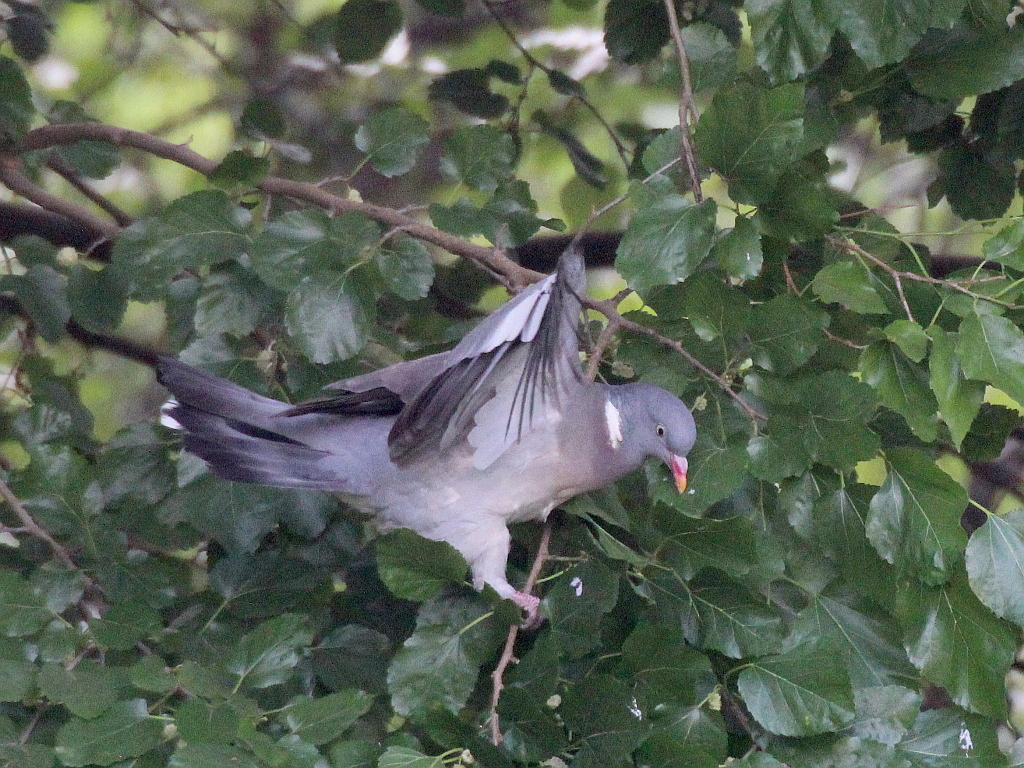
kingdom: Animalia
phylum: Chordata
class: Aves
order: Columbiformes
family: Columbidae
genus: Columba
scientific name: Columba palumbus
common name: Common wood pigeon
